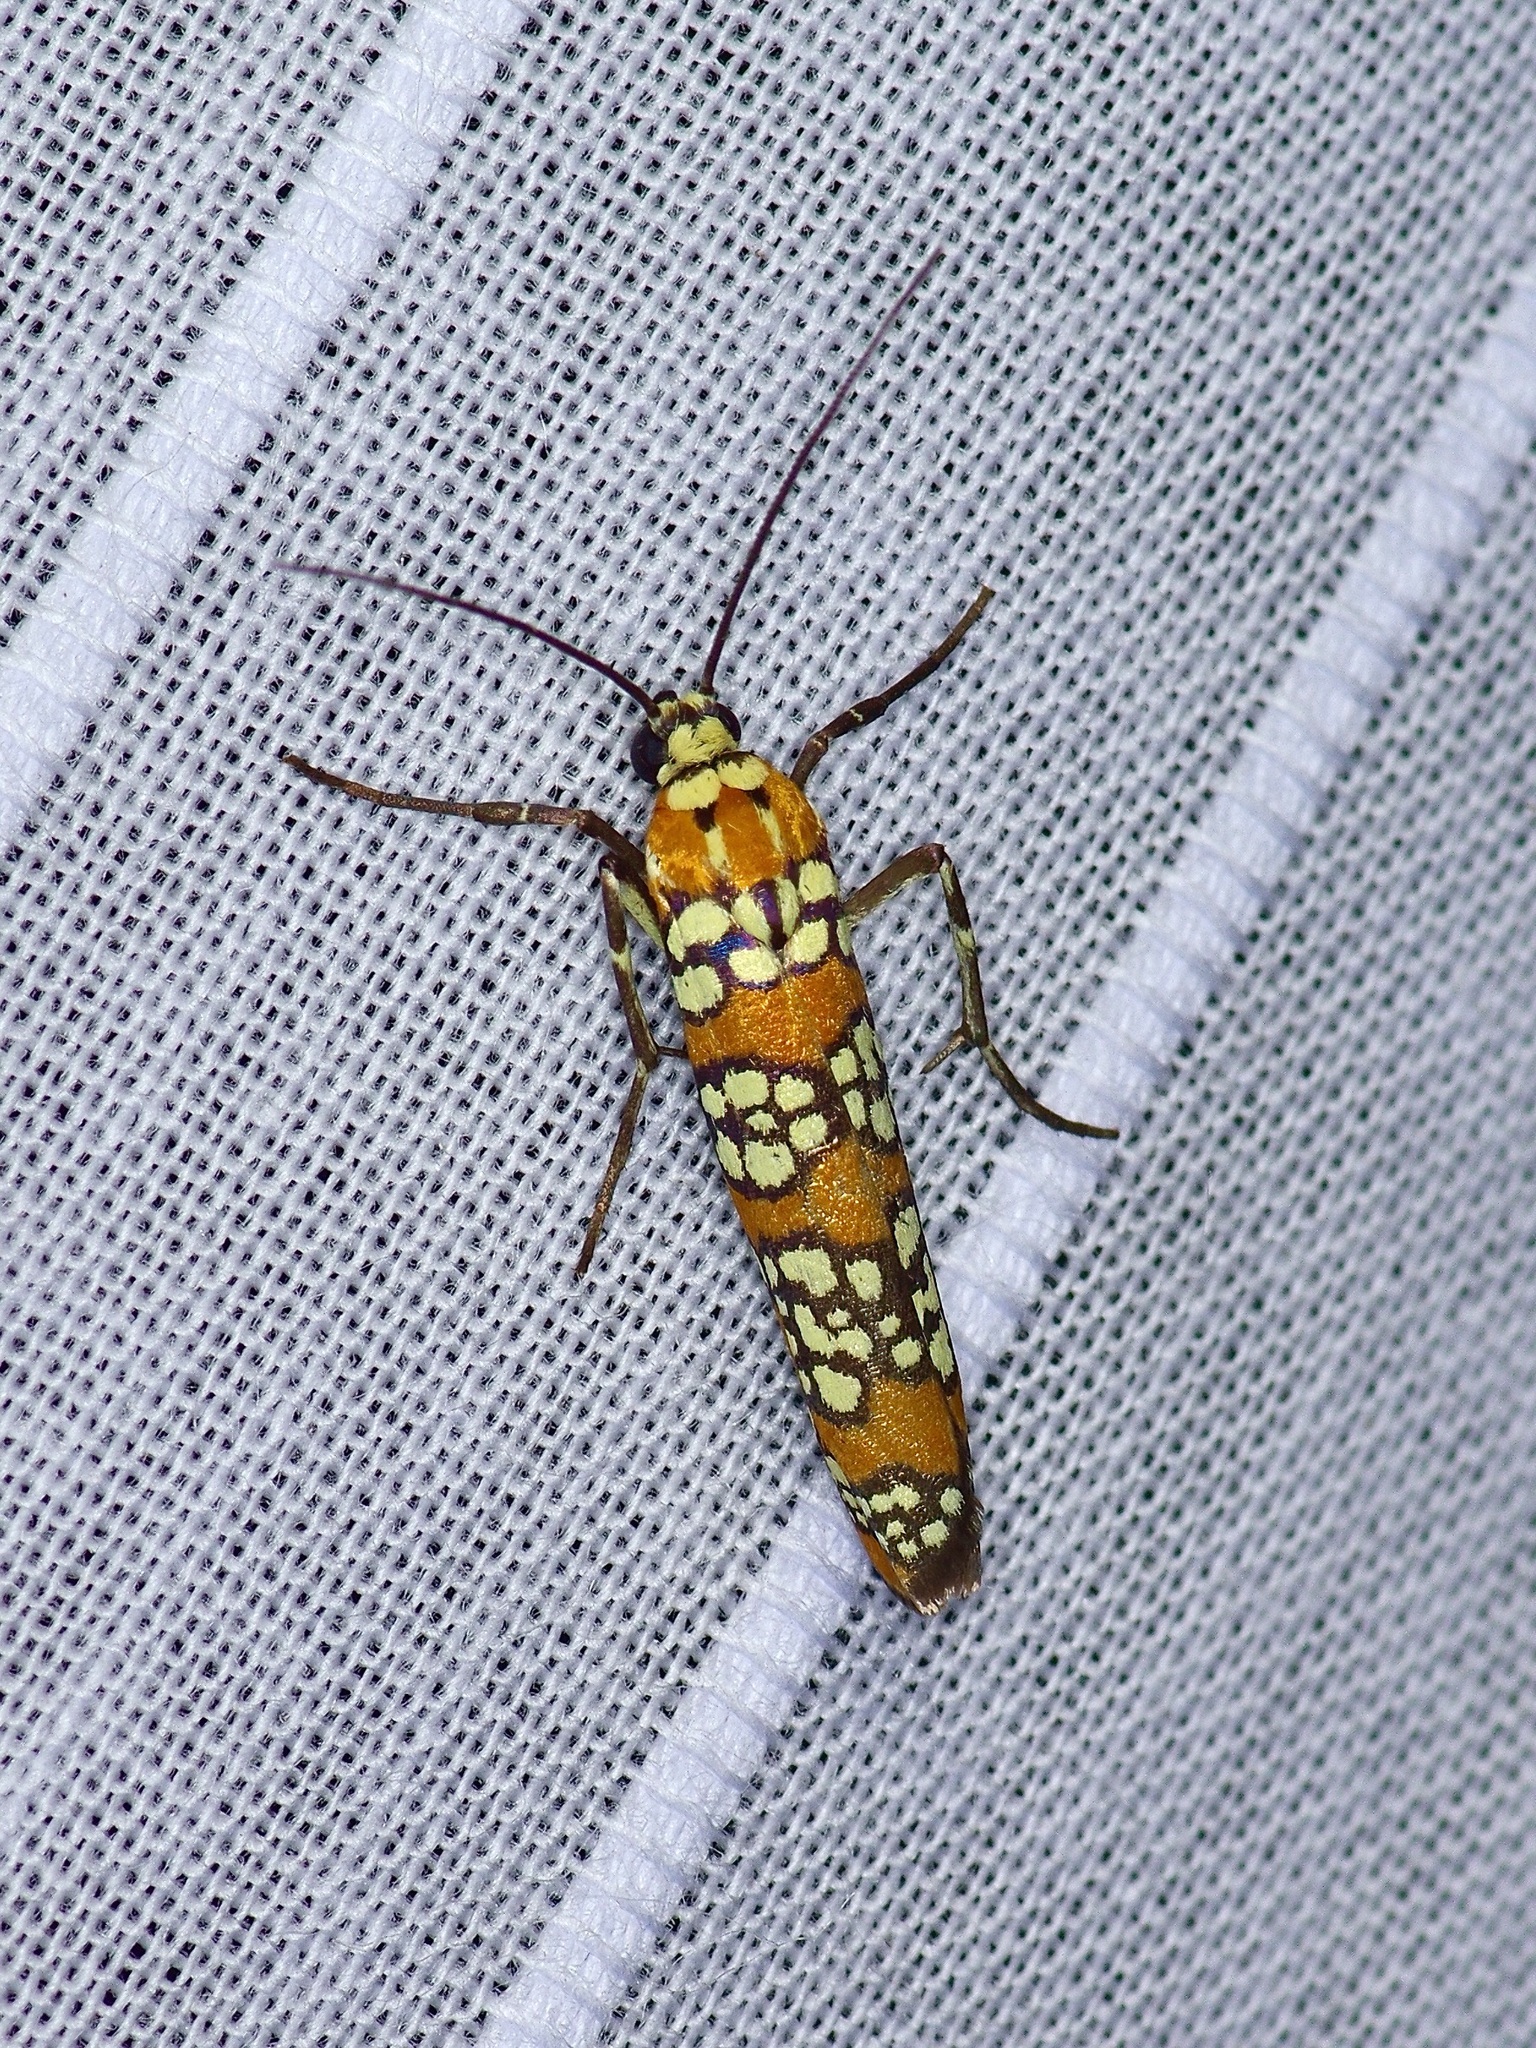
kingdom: Animalia
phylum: Arthropoda
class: Insecta
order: Lepidoptera
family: Attevidae
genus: Atteva
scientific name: Atteva punctella
